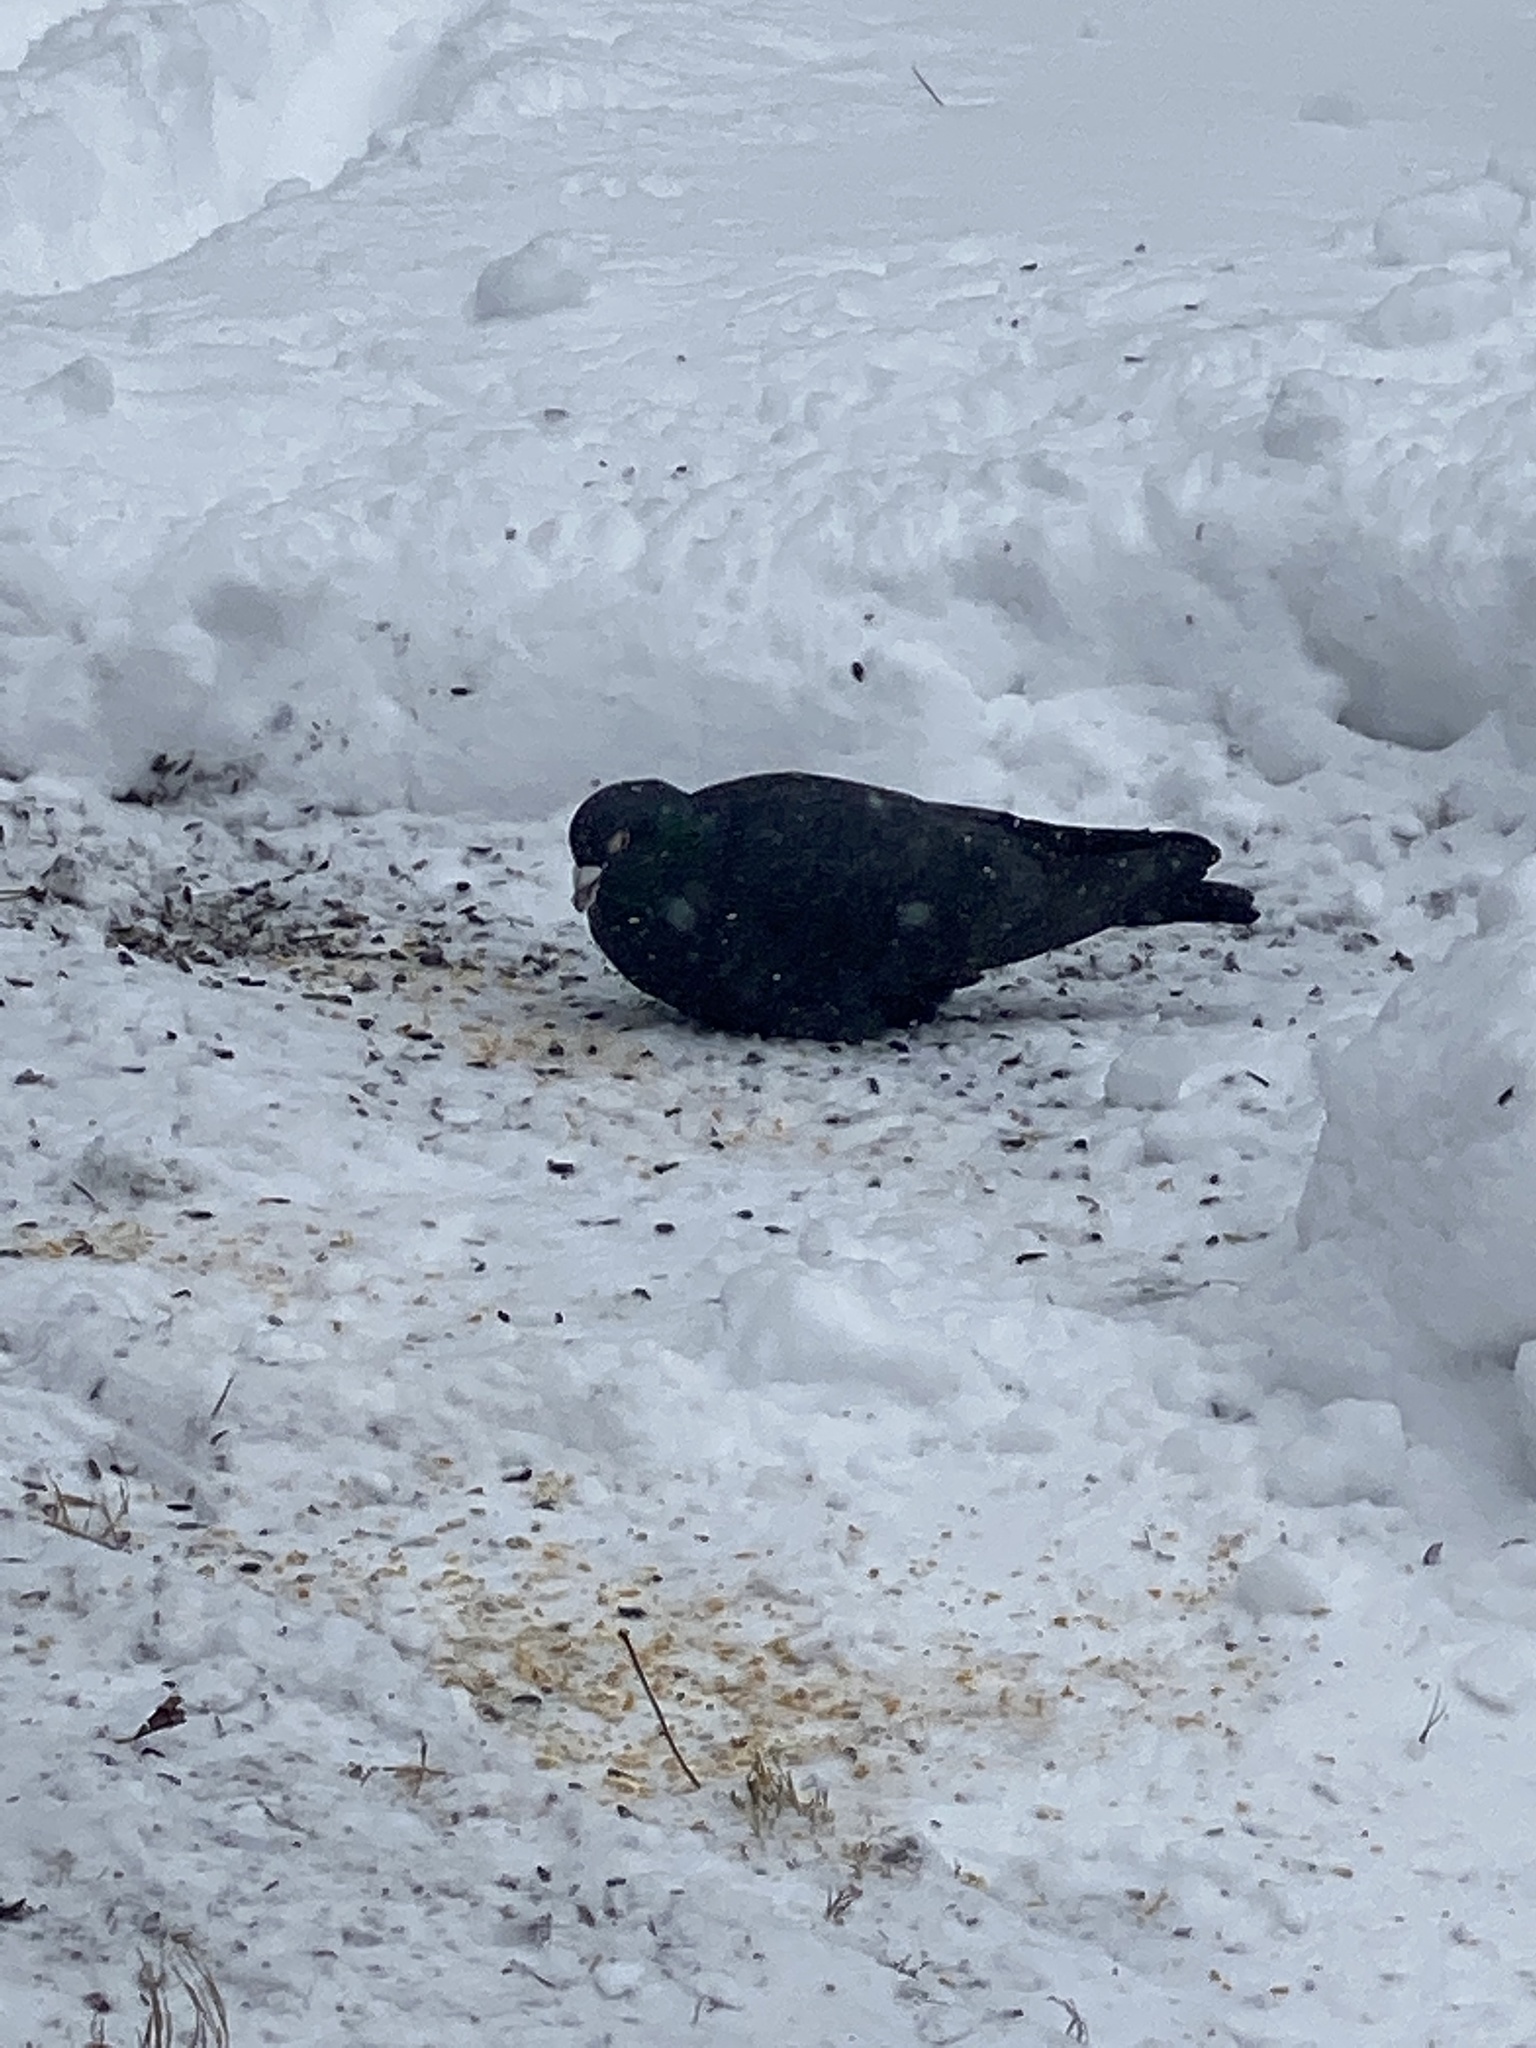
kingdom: Animalia
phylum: Chordata
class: Aves
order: Columbiformes
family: Columbidae
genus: Columba
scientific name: Columba livia
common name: Rock pigeon
